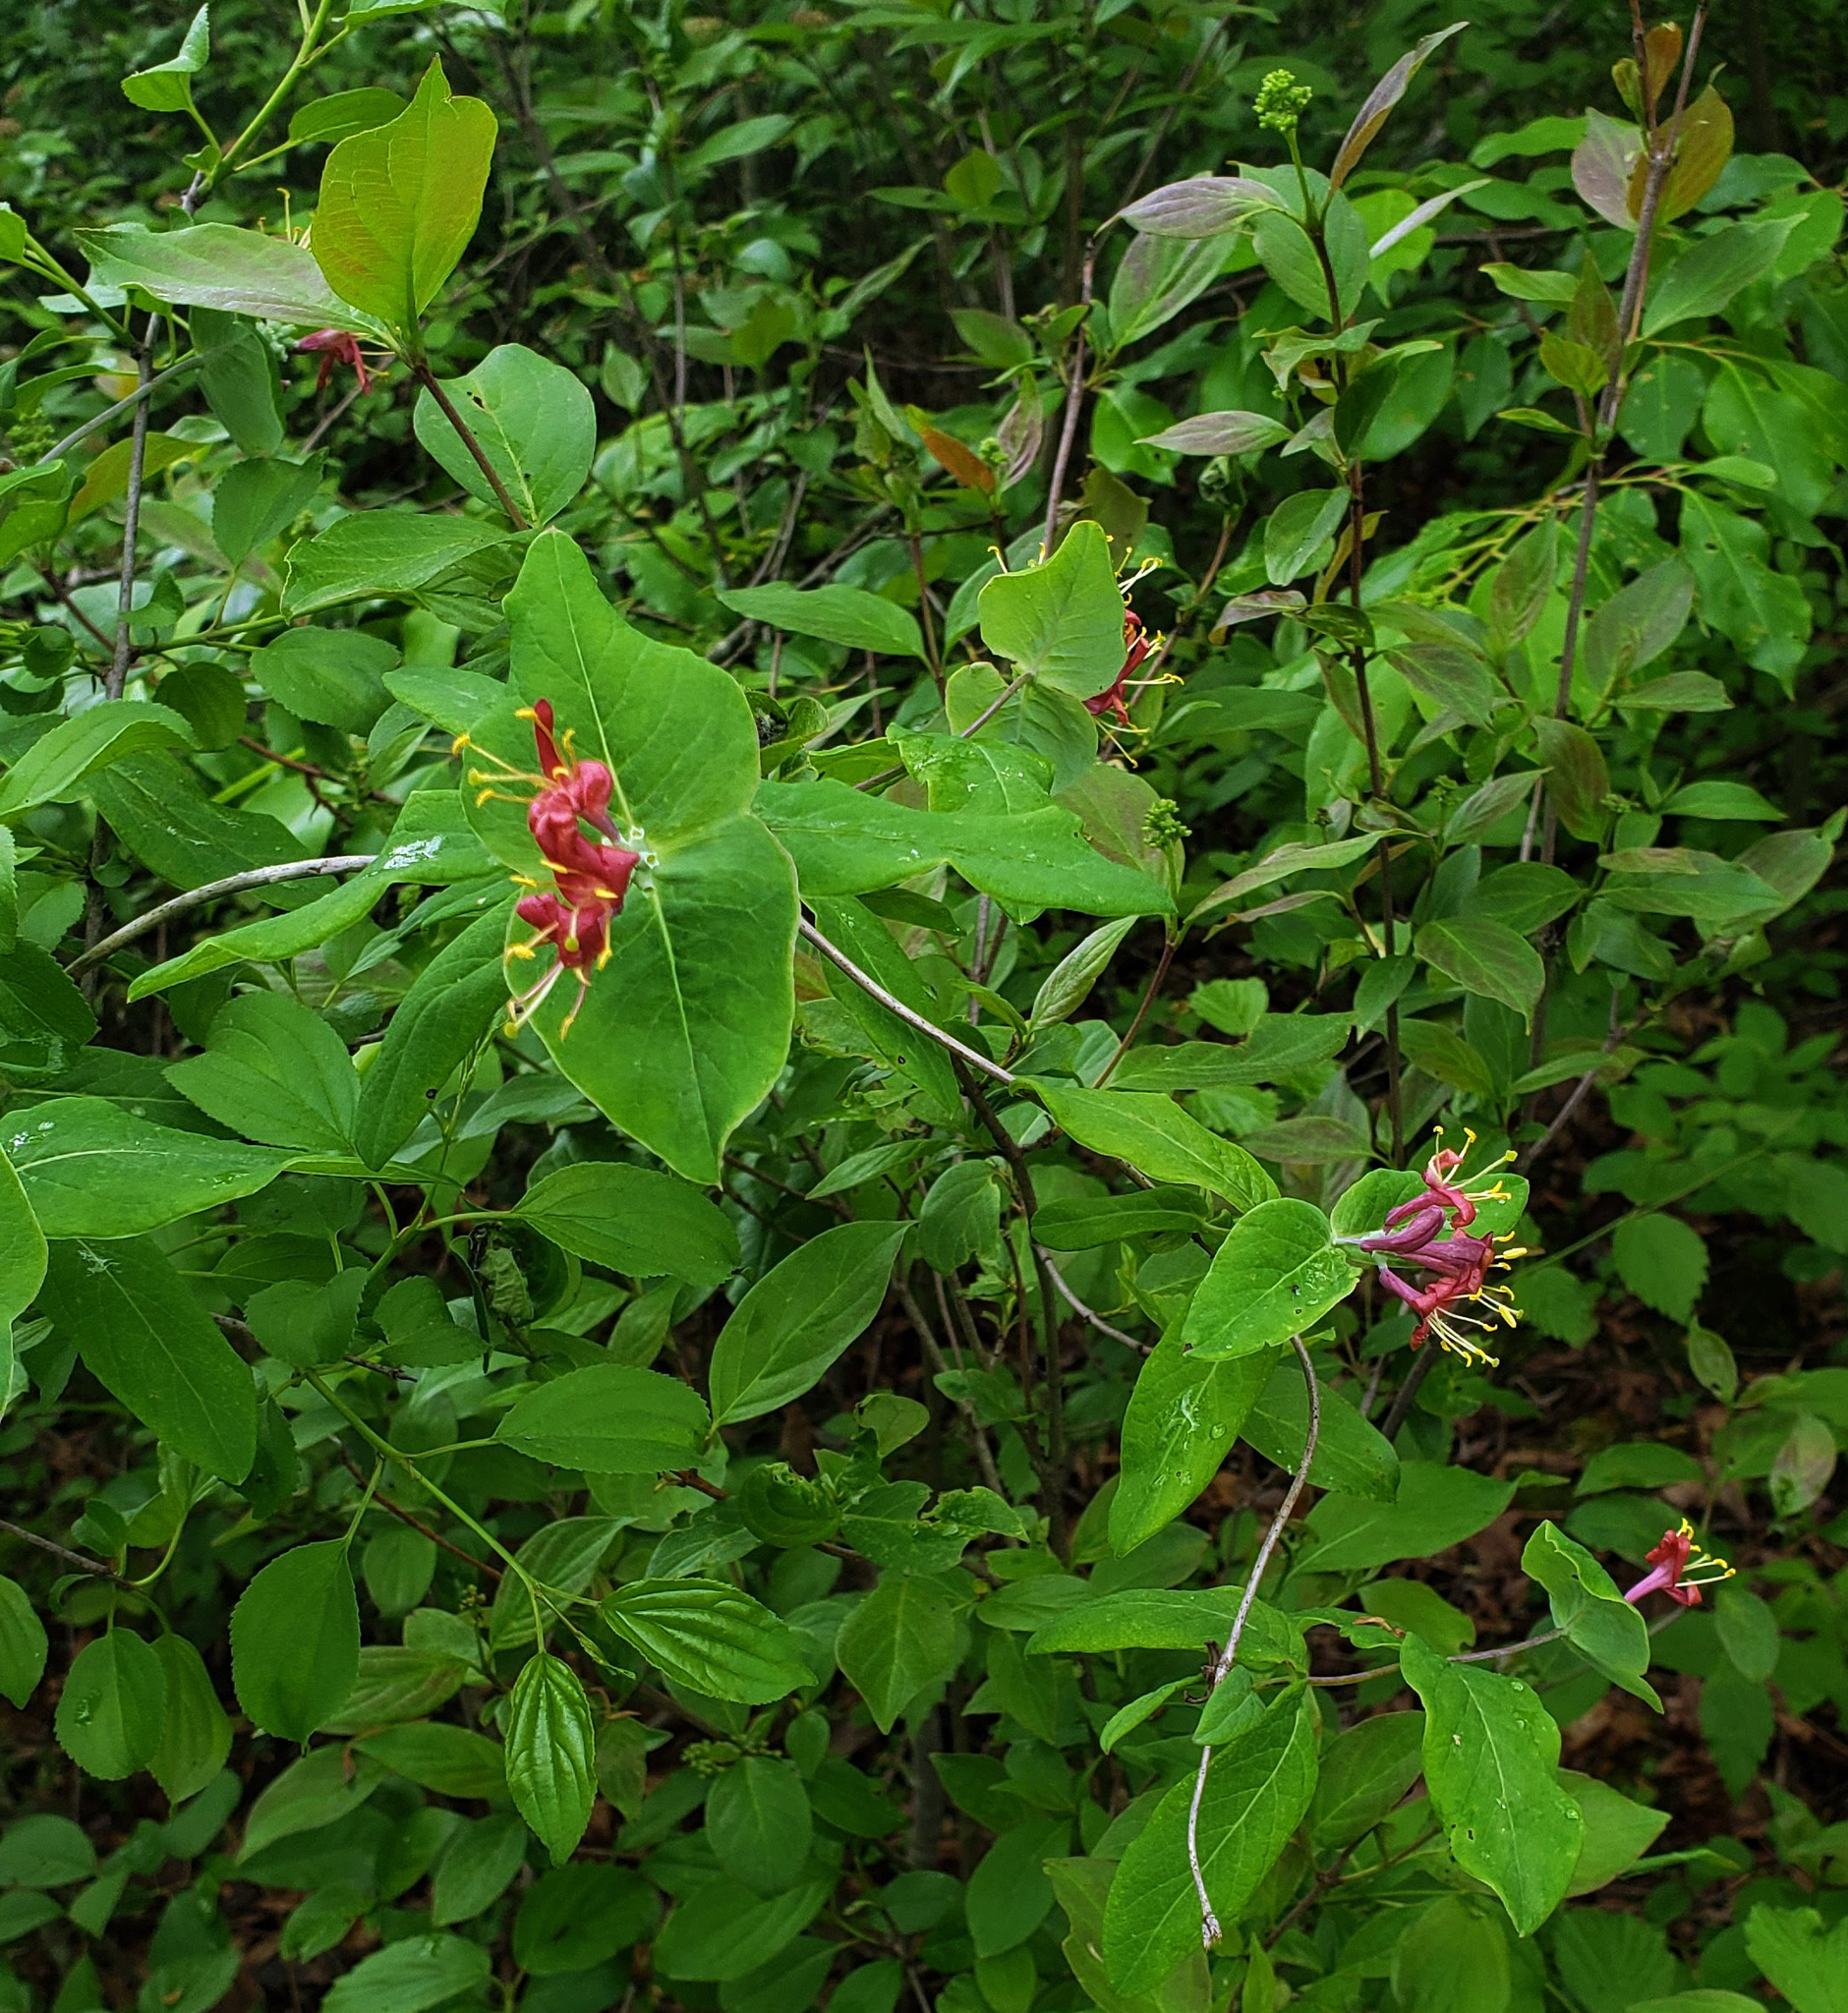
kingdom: Plantae
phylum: Tracheophyta
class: Magnoliopsida
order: Dipsacales
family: Caprifoliaceae
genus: Lonicera
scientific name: Lonicera dioica
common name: Limber honeysuckle
